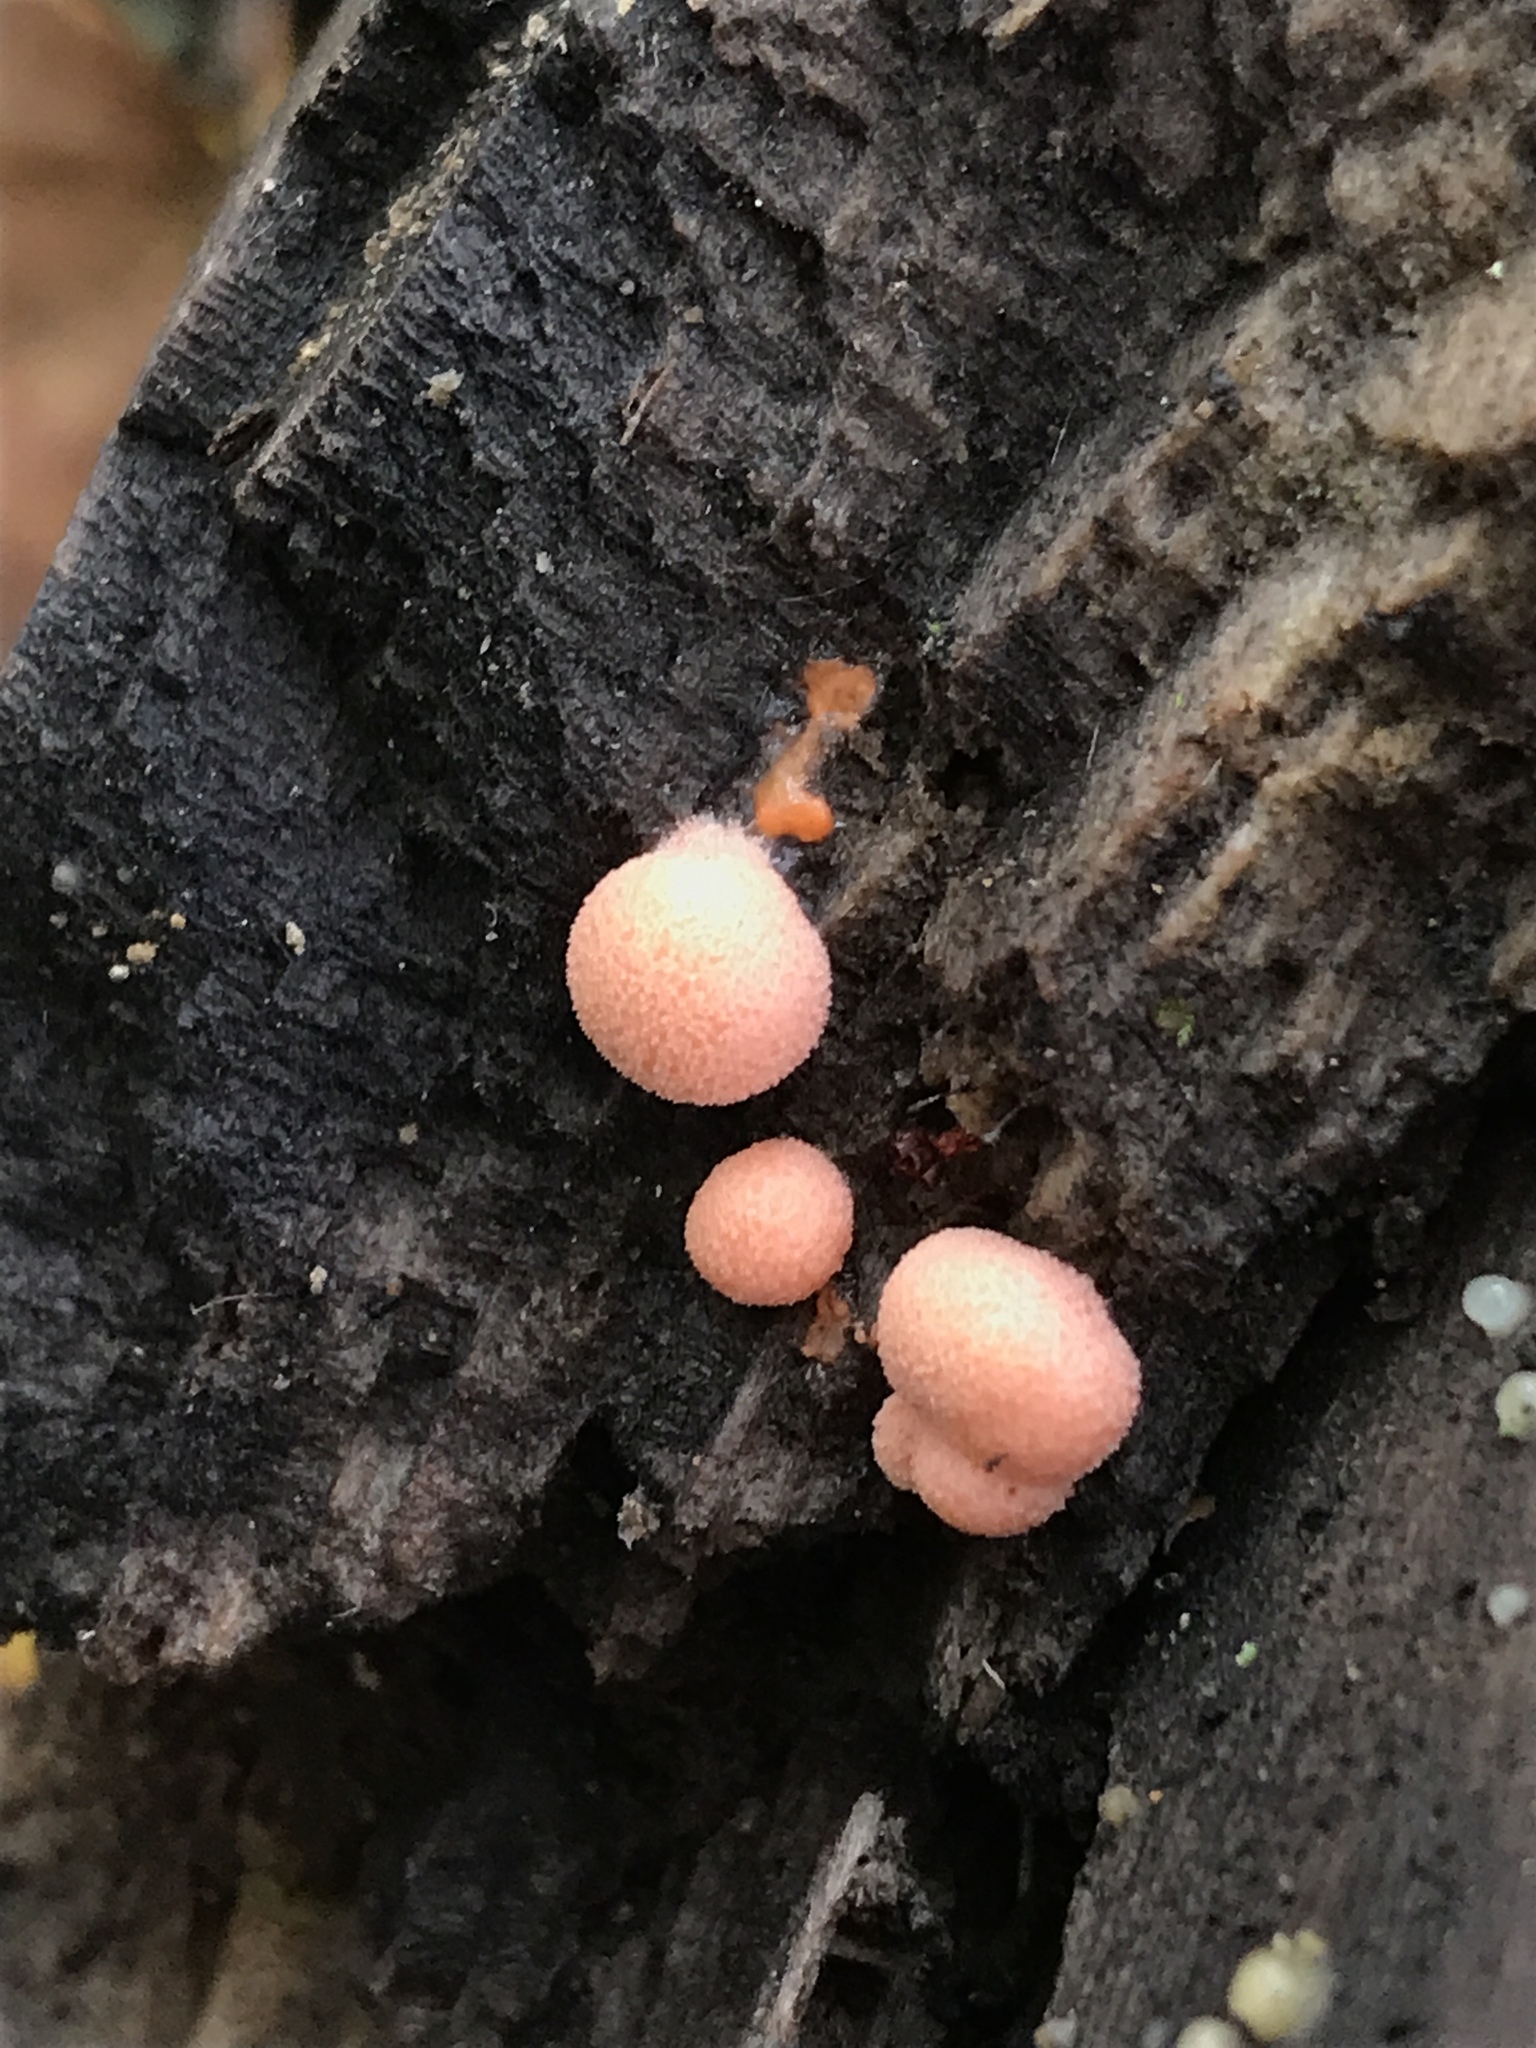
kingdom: Protozoa
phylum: Mycetozoa
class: Myxomycetes
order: Cribrariales
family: Tubiferaceae
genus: Lycogala
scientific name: Lycogala epidendrum
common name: Wolf's milk
